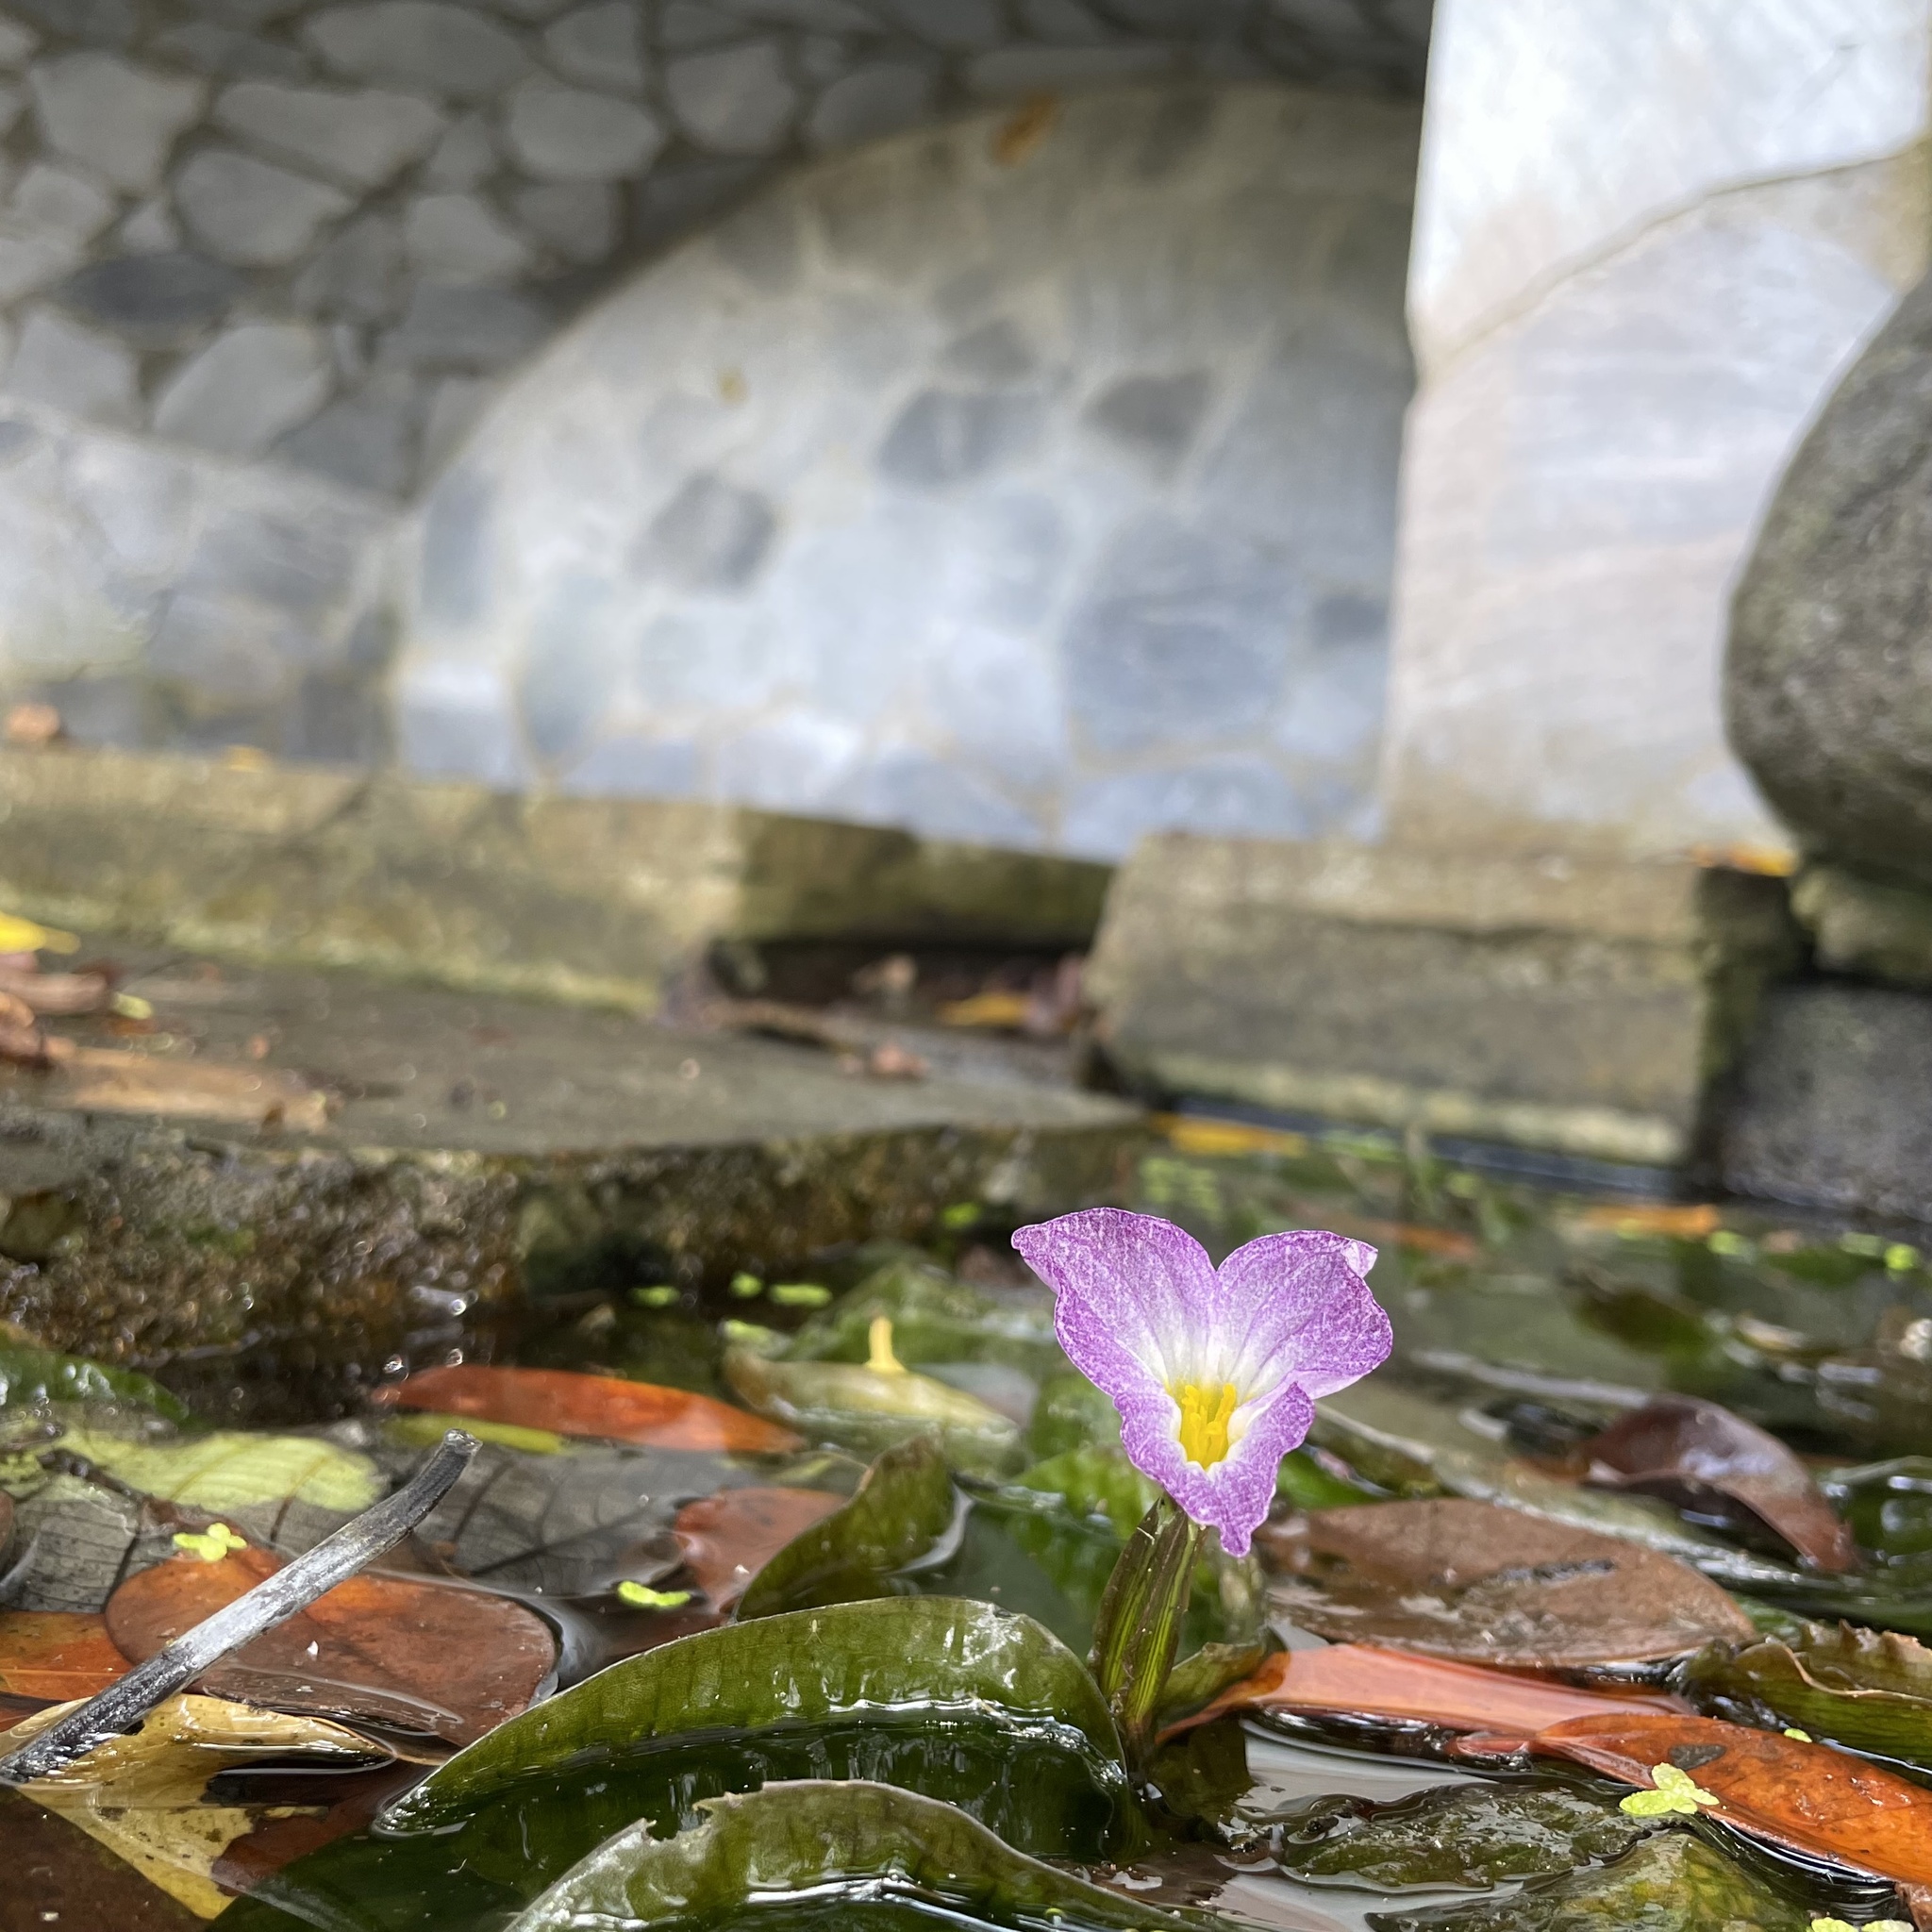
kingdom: Plantae
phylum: Tracheophyta
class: Liliopsida
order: Alismatales
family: Hydrocharitaceae
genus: Ottelia
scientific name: Ottelia alismoides
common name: Duck-lettuce
